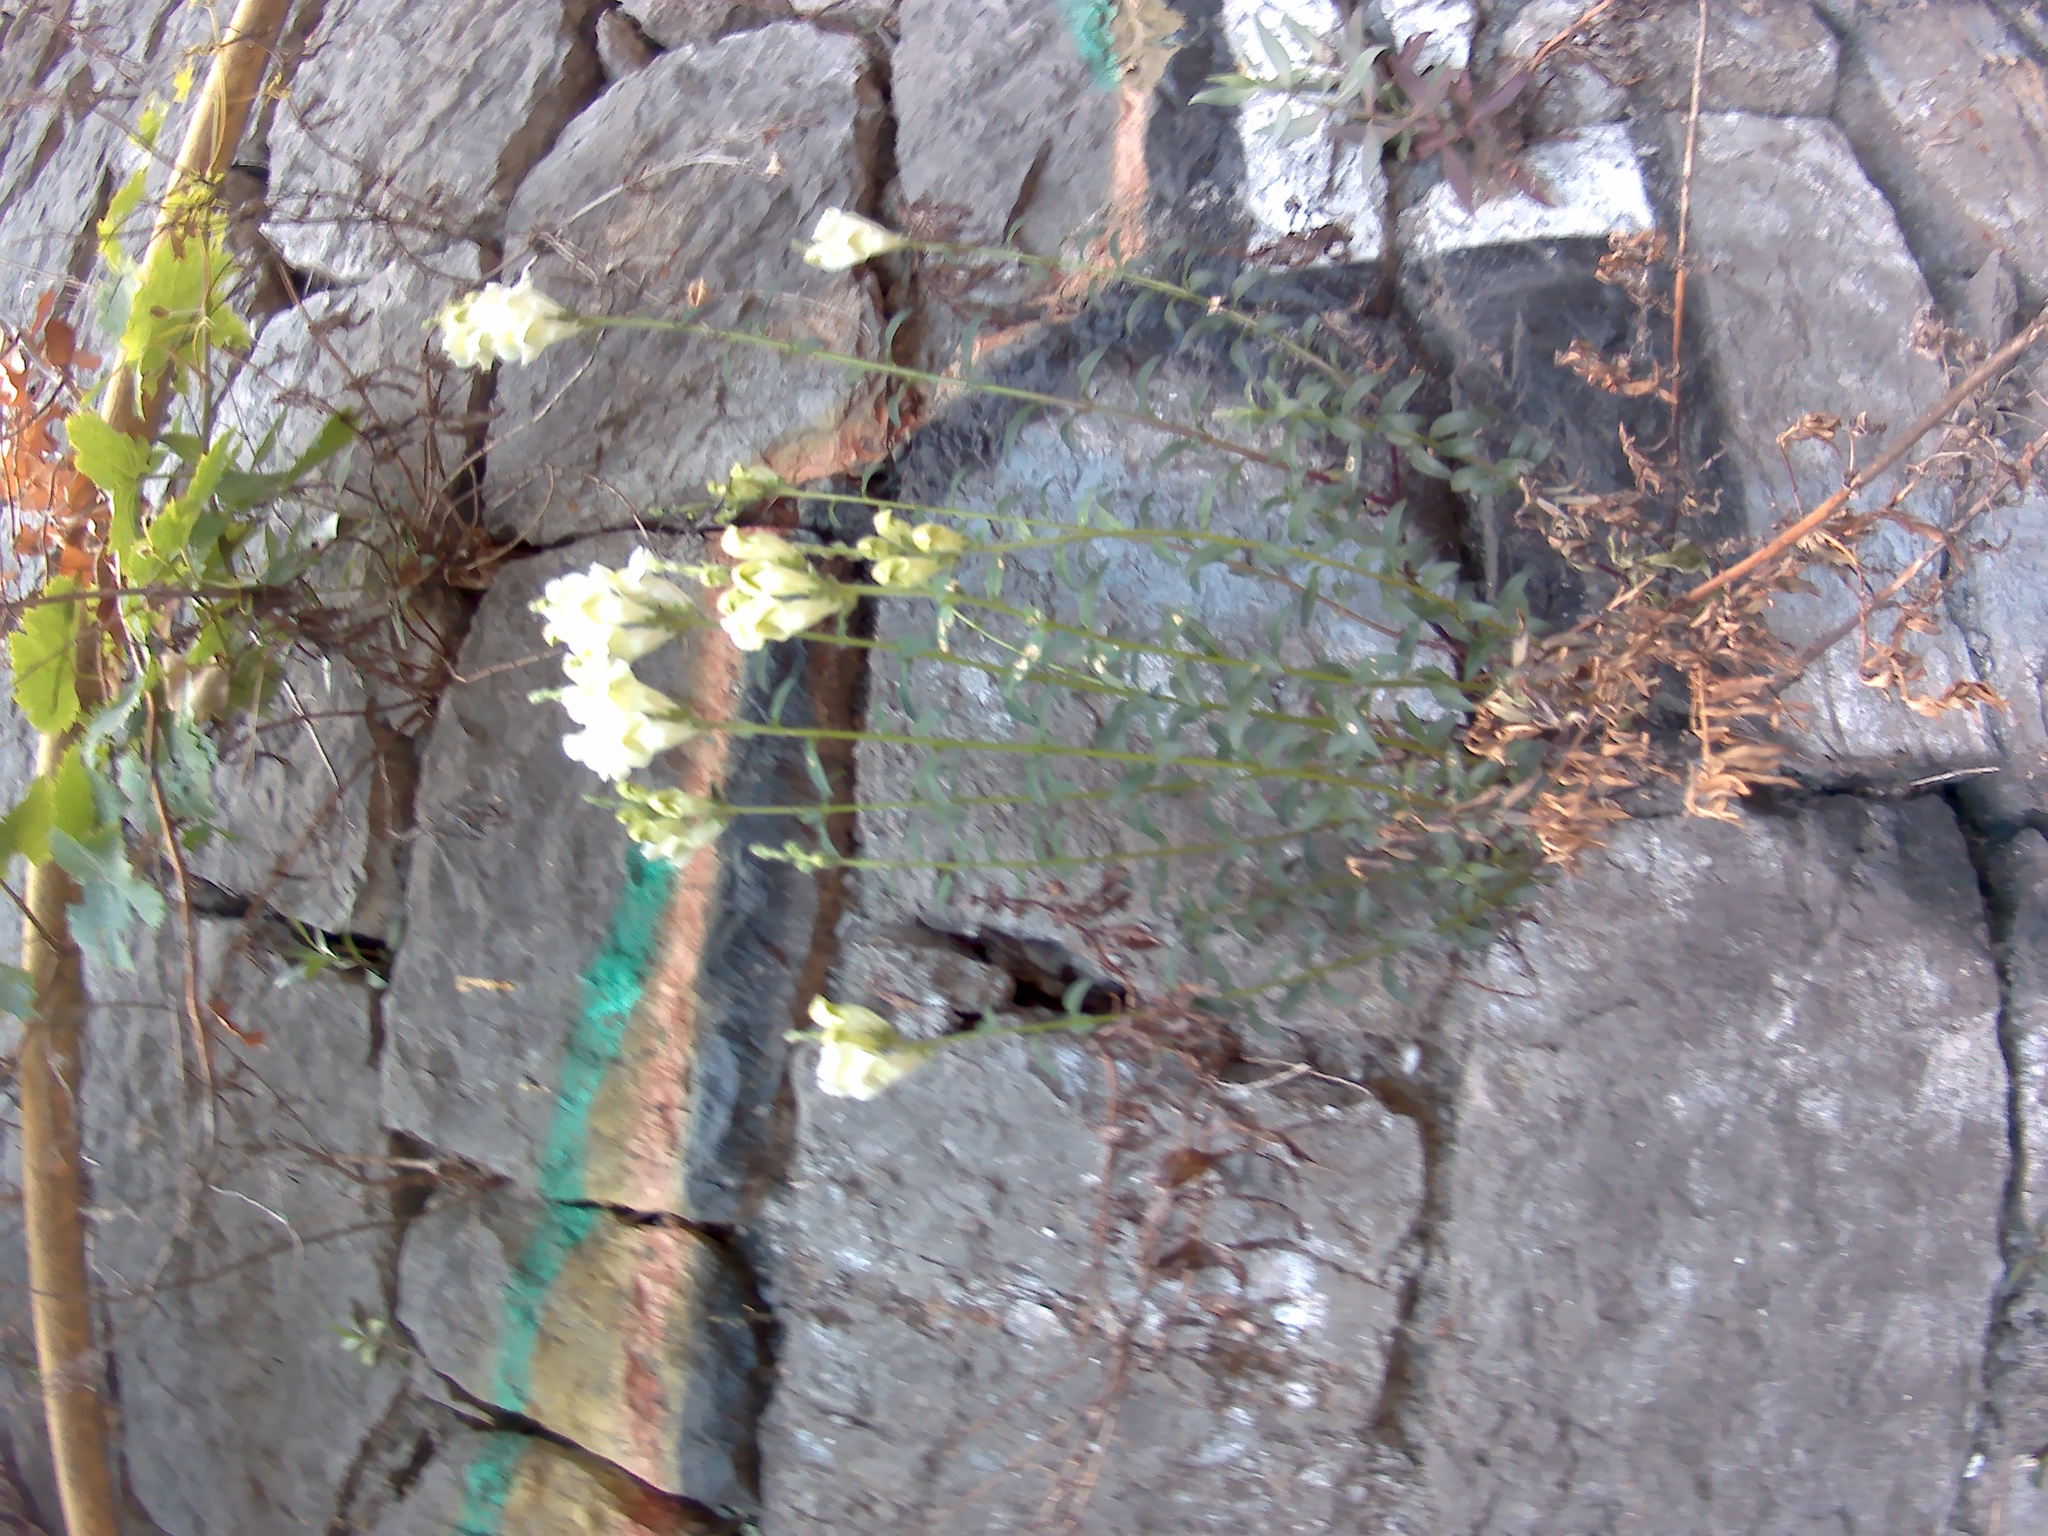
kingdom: Plantae
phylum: Tracheophyta
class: Magnoliopsida
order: Lamiales
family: Plantaginaceae
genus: Antirrhinum
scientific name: Antirrhinum majus
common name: Snapdragon
